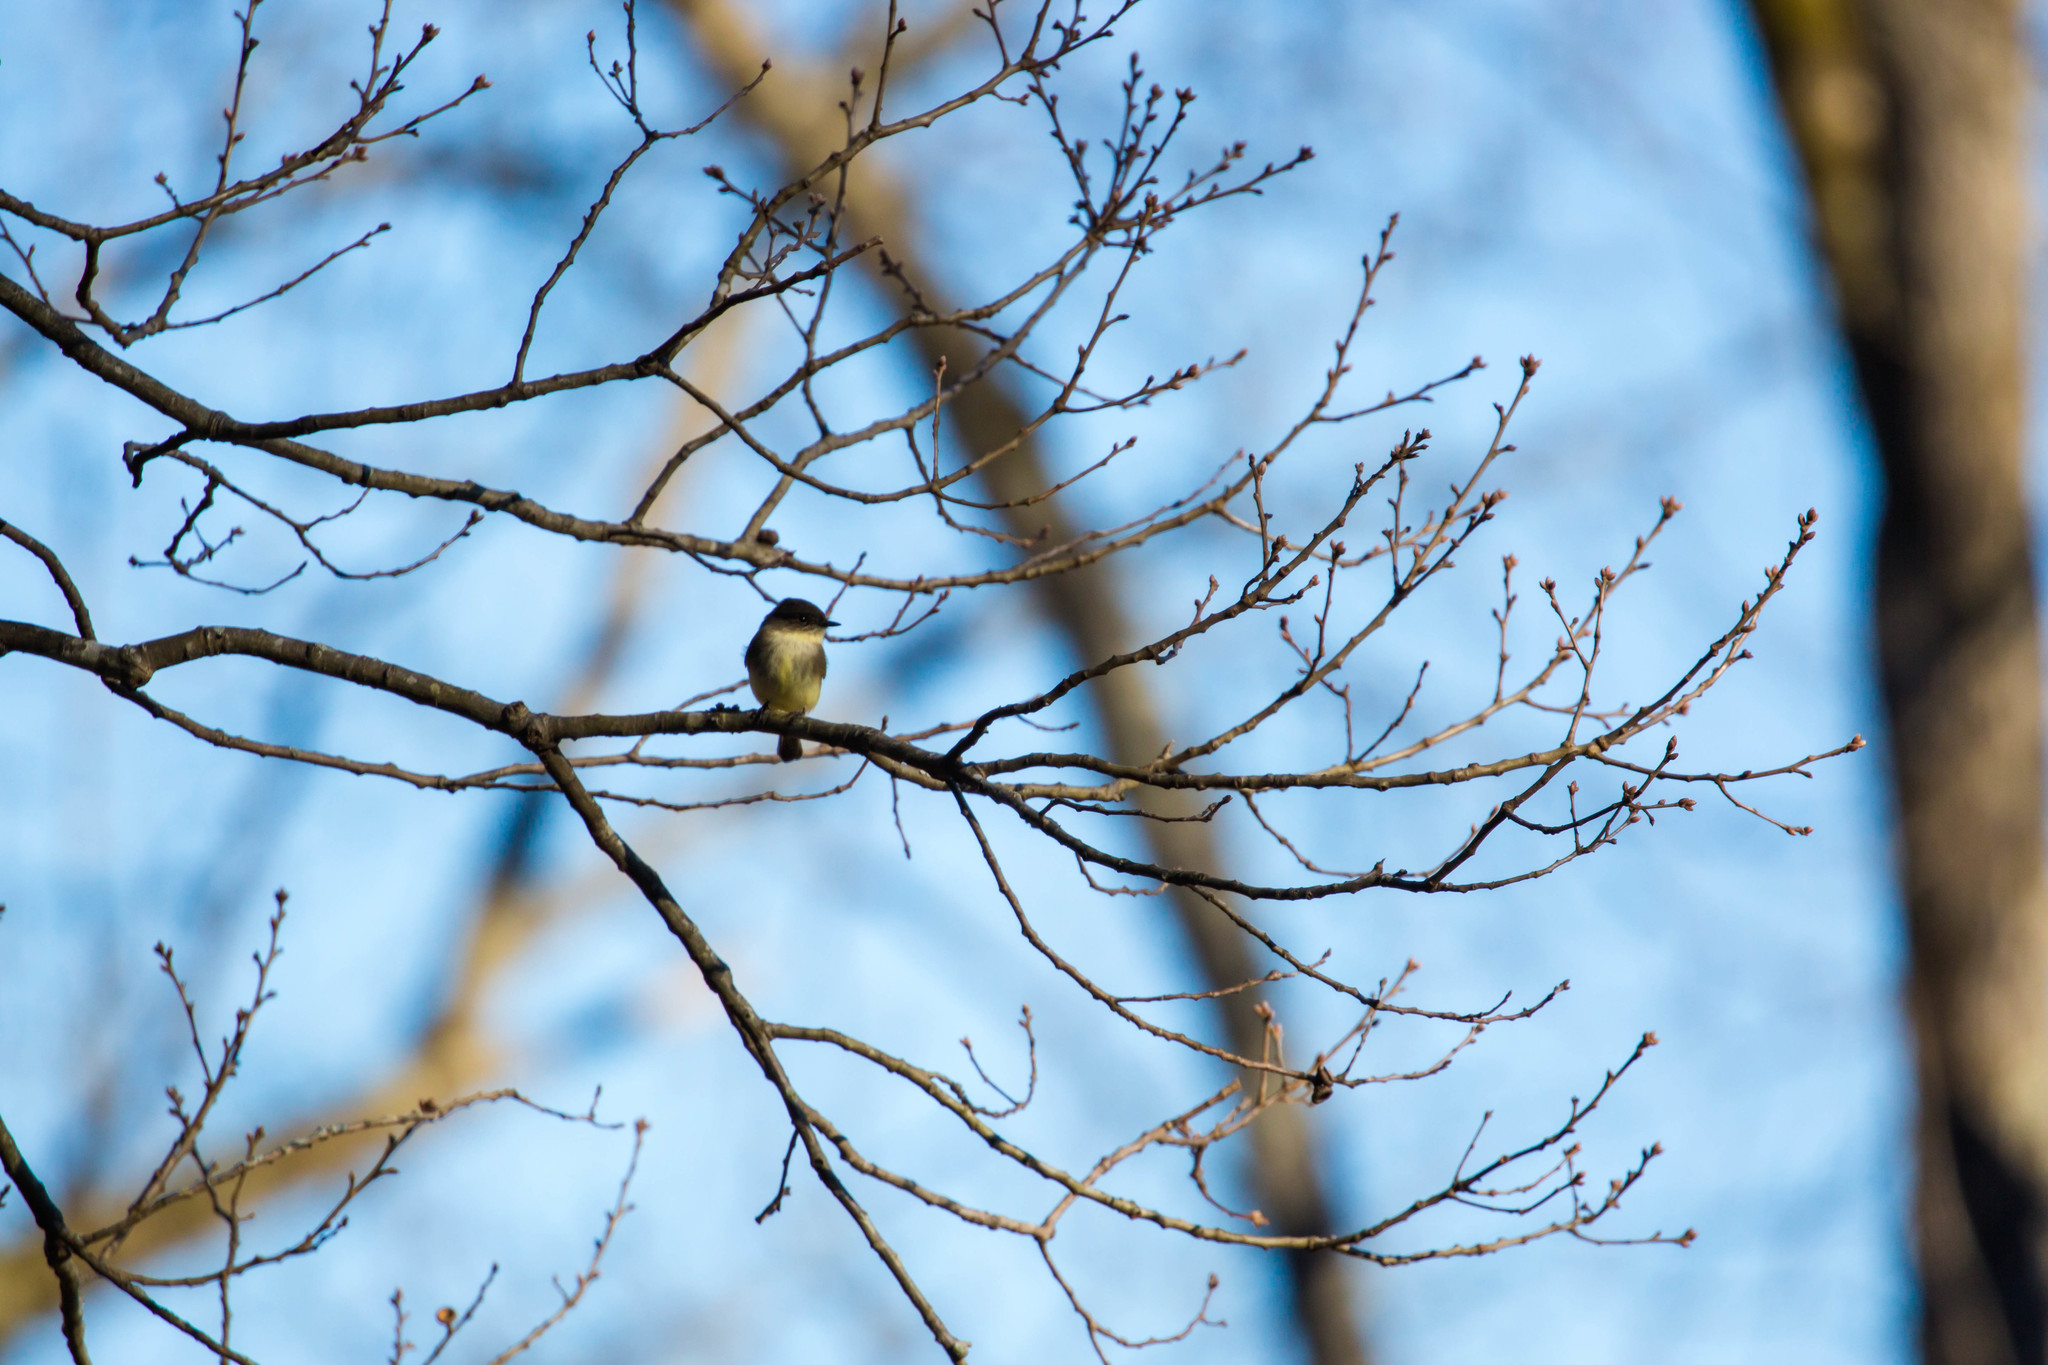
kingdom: Animalia
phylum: Chordata
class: Aves
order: Passeriformes
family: Tyrannidae
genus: Sayornis
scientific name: Sayornis phoebe
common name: Eastern phoebe
